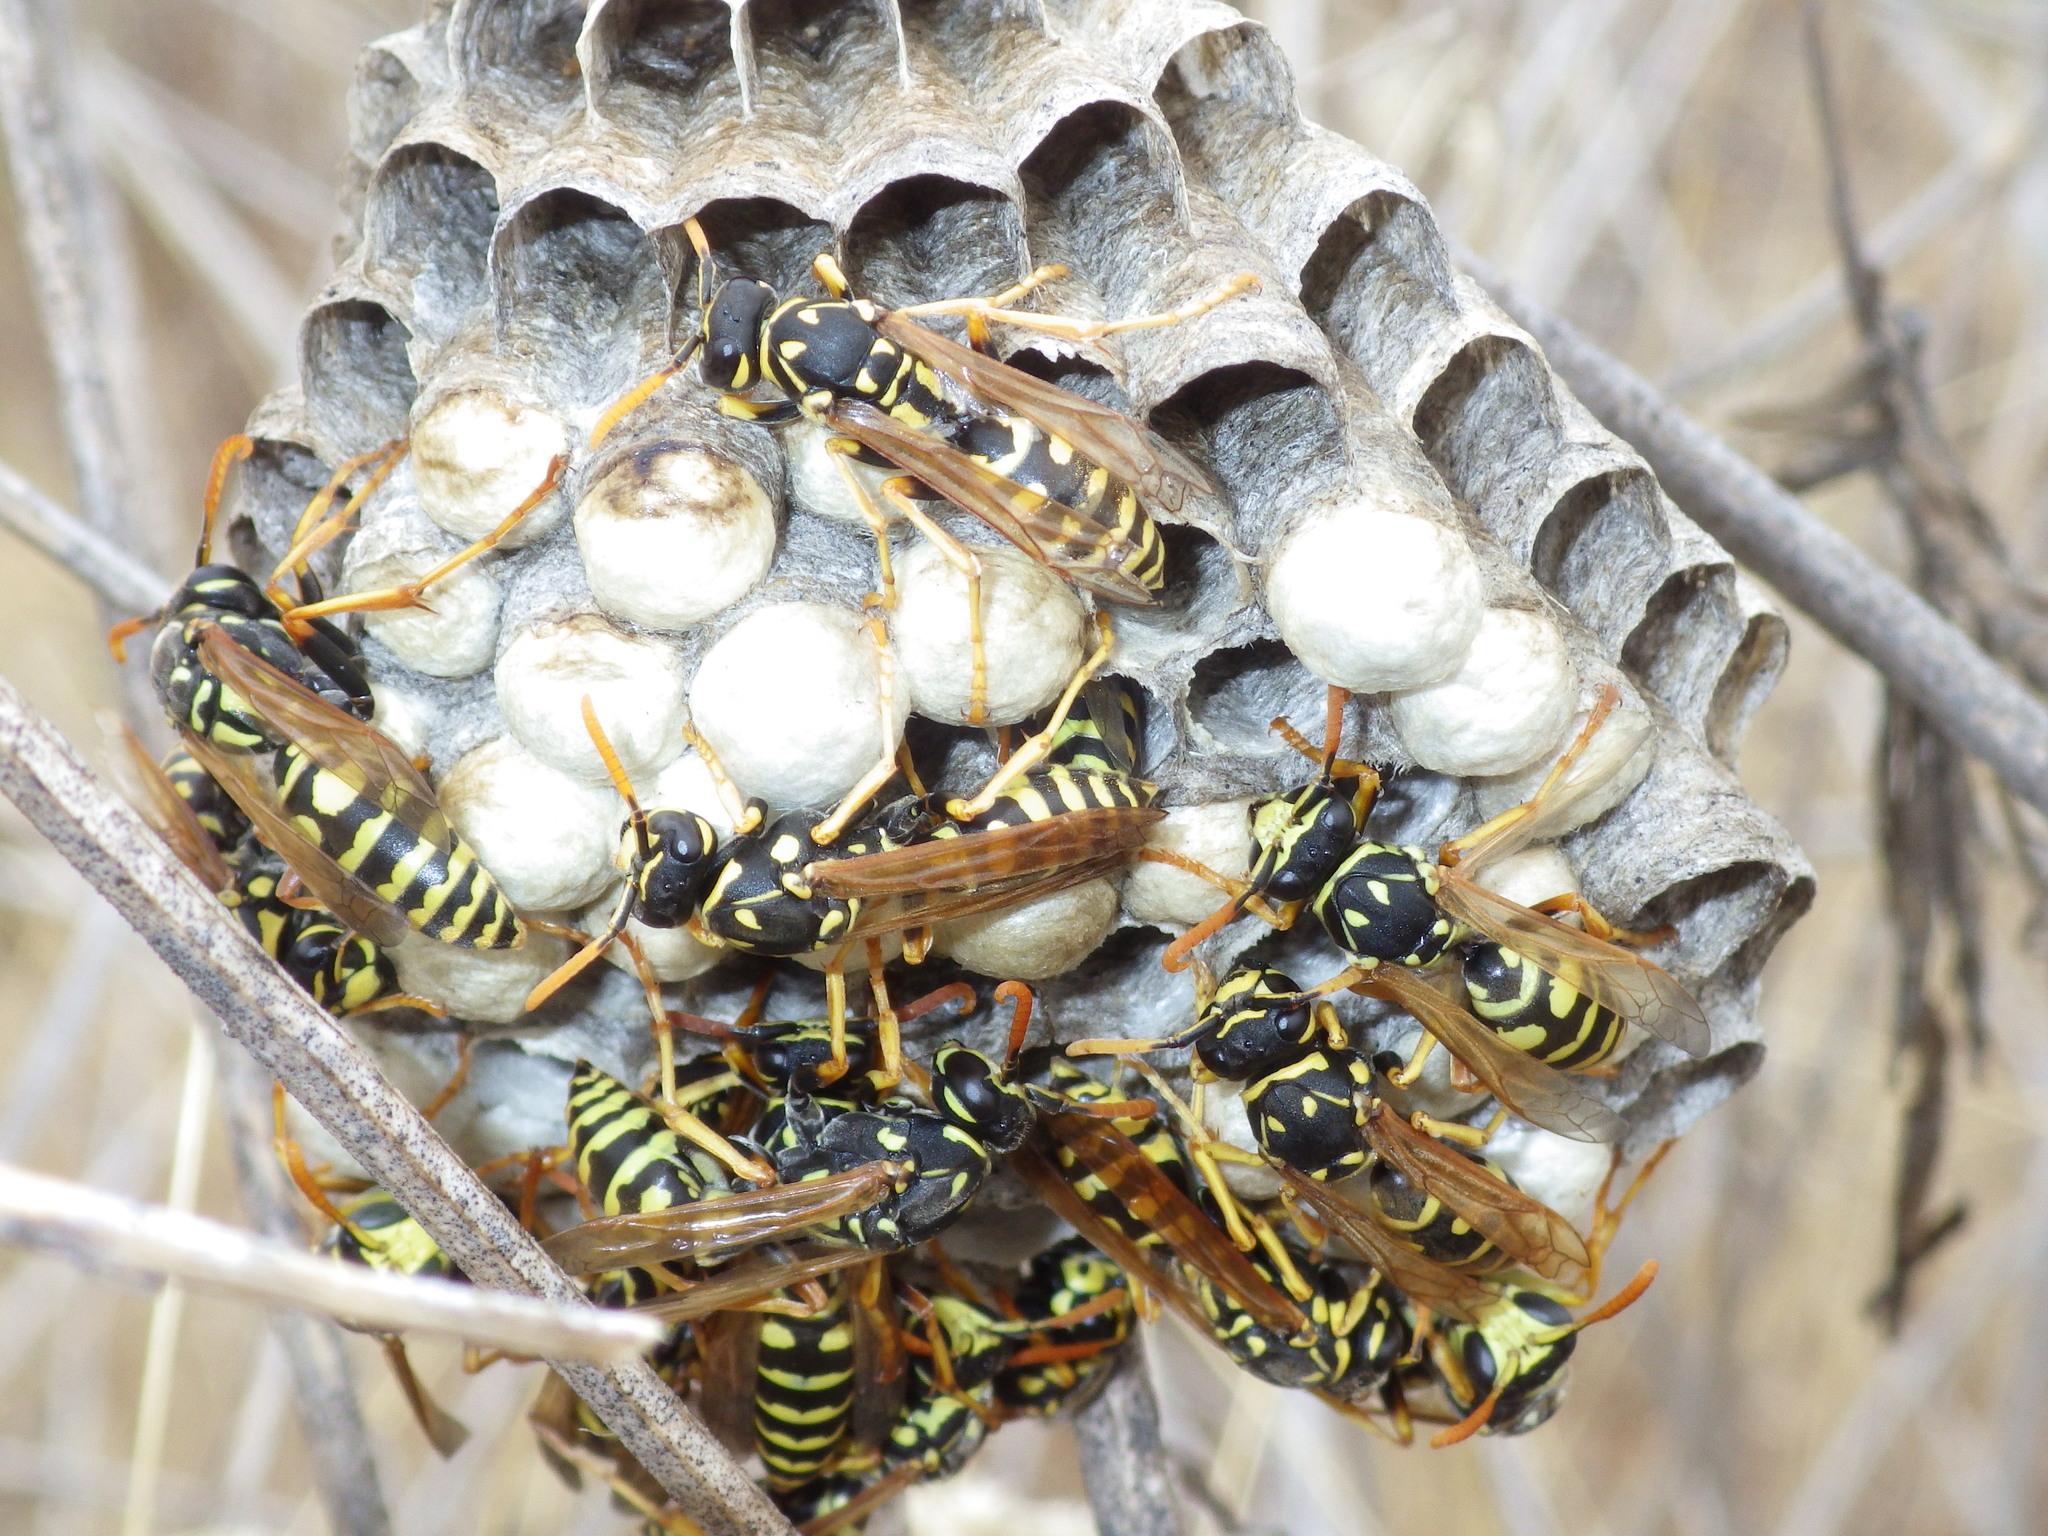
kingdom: Animalia
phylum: Arthropoda
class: Insecta
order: Hymenoptera
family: Eumenidae
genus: Polistes
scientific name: Polistes dominula
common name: Paper wasp
